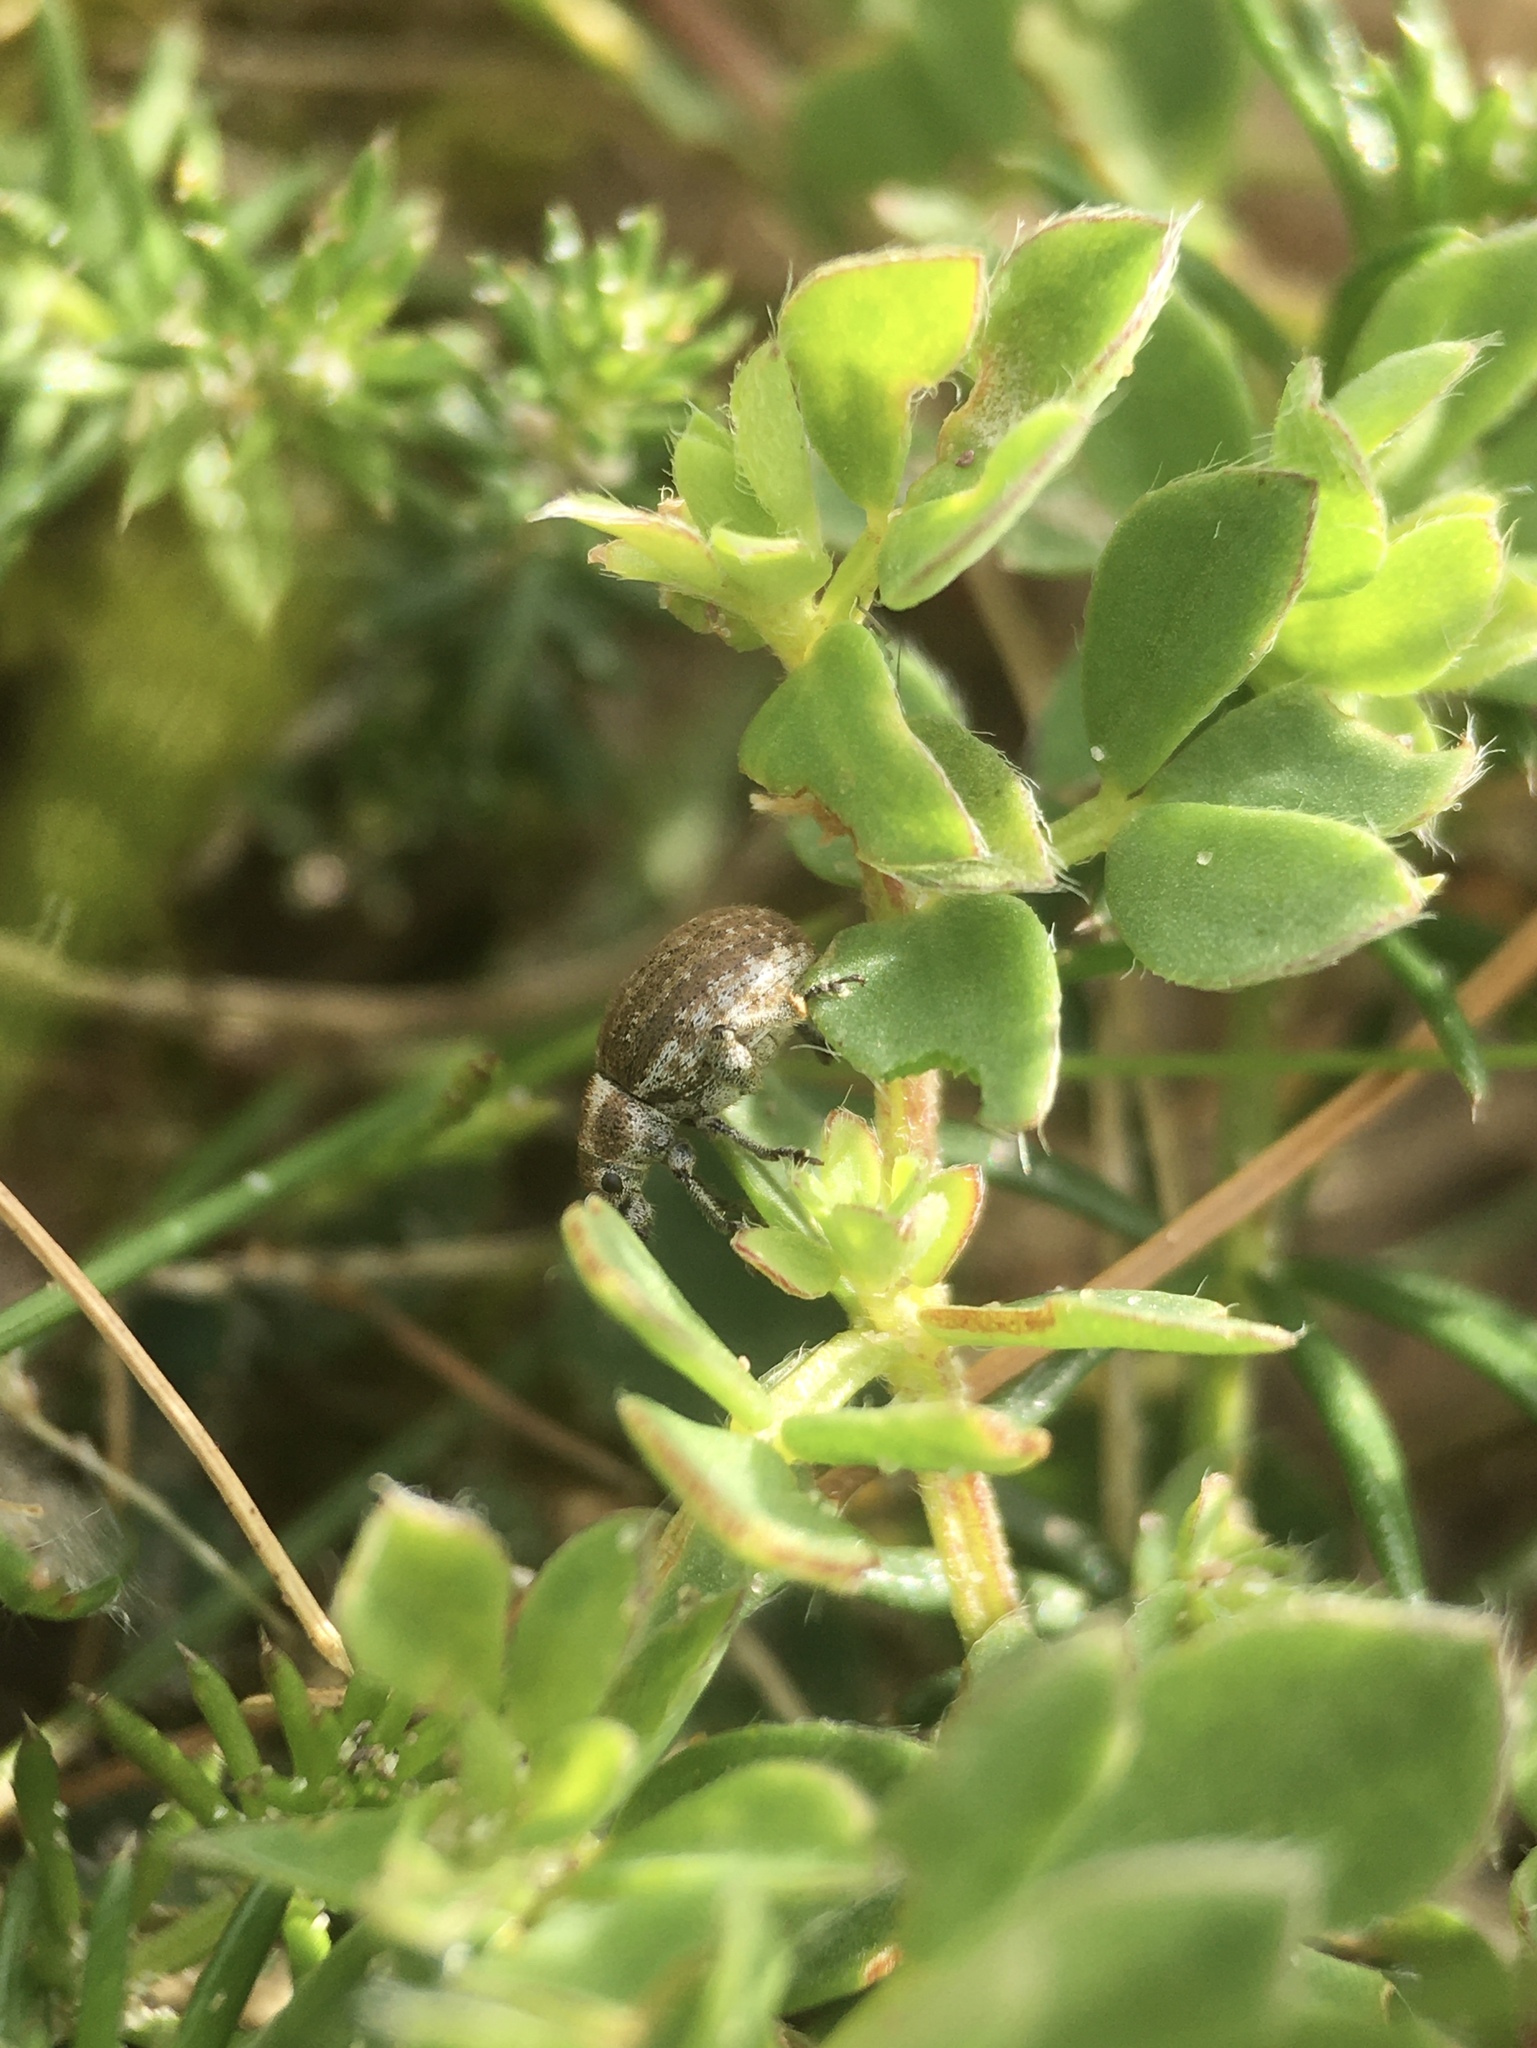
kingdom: Animalia
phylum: Arthropoda
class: Insecta
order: Coleoptera
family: Curculionidae
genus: Philopedon
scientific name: Philopedon plagiatum
